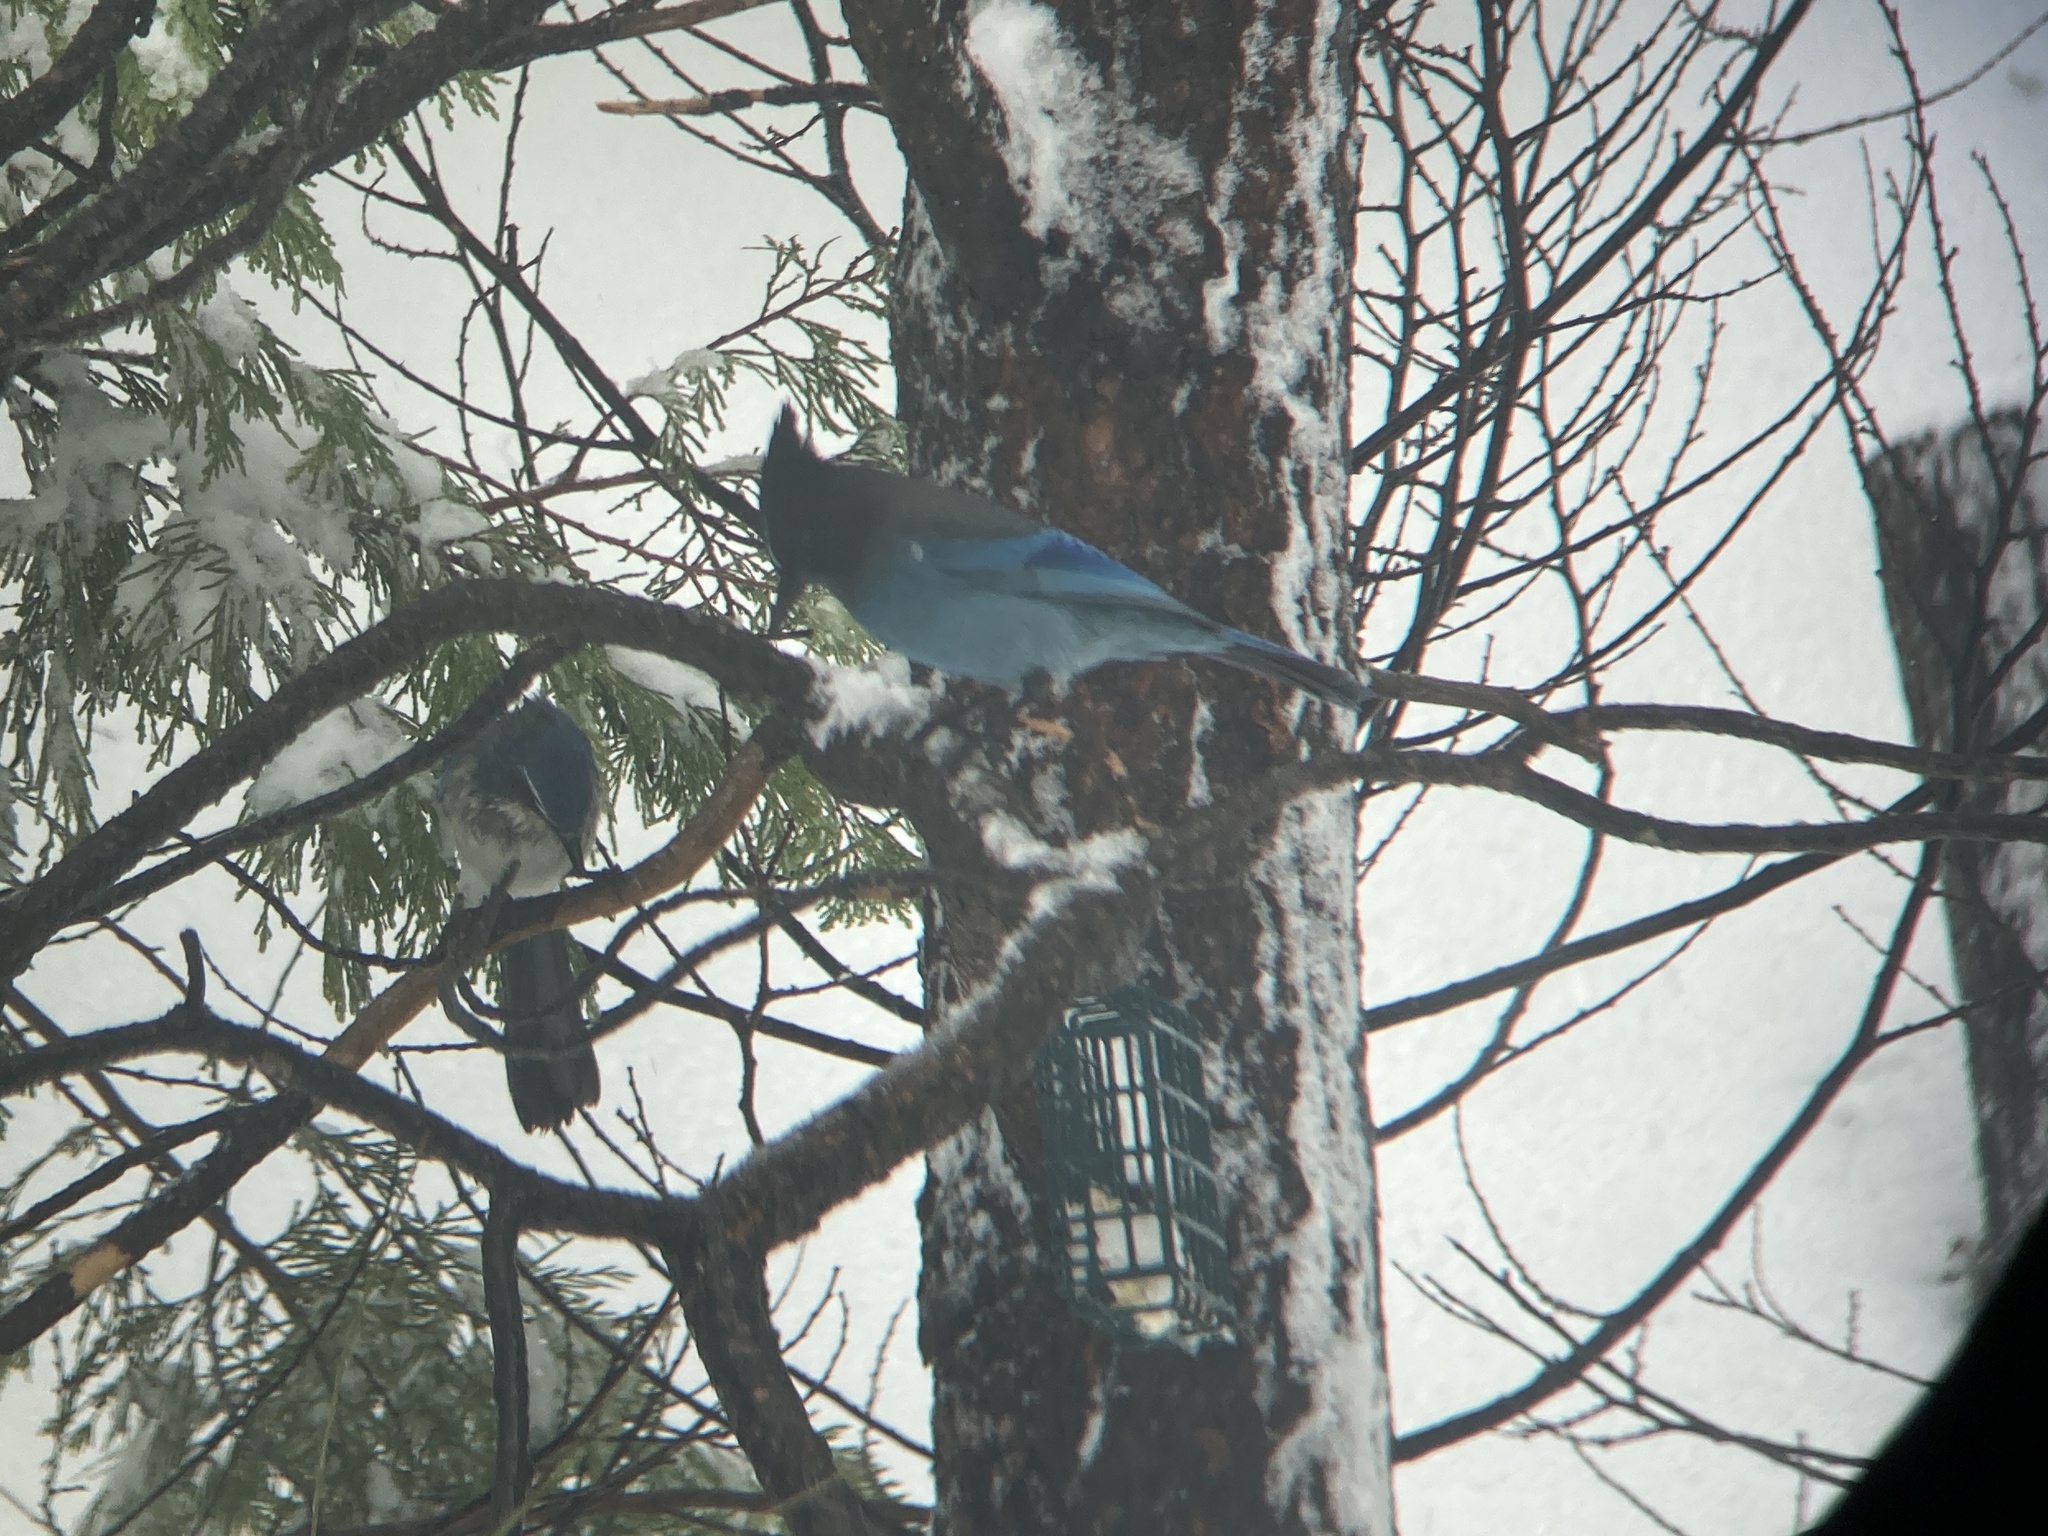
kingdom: Animalia
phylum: Chordata
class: Aves
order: Passeriformes
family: Corvidae
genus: Cyanocitta
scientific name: Cyanocitta stelleri
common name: Steller's jay
